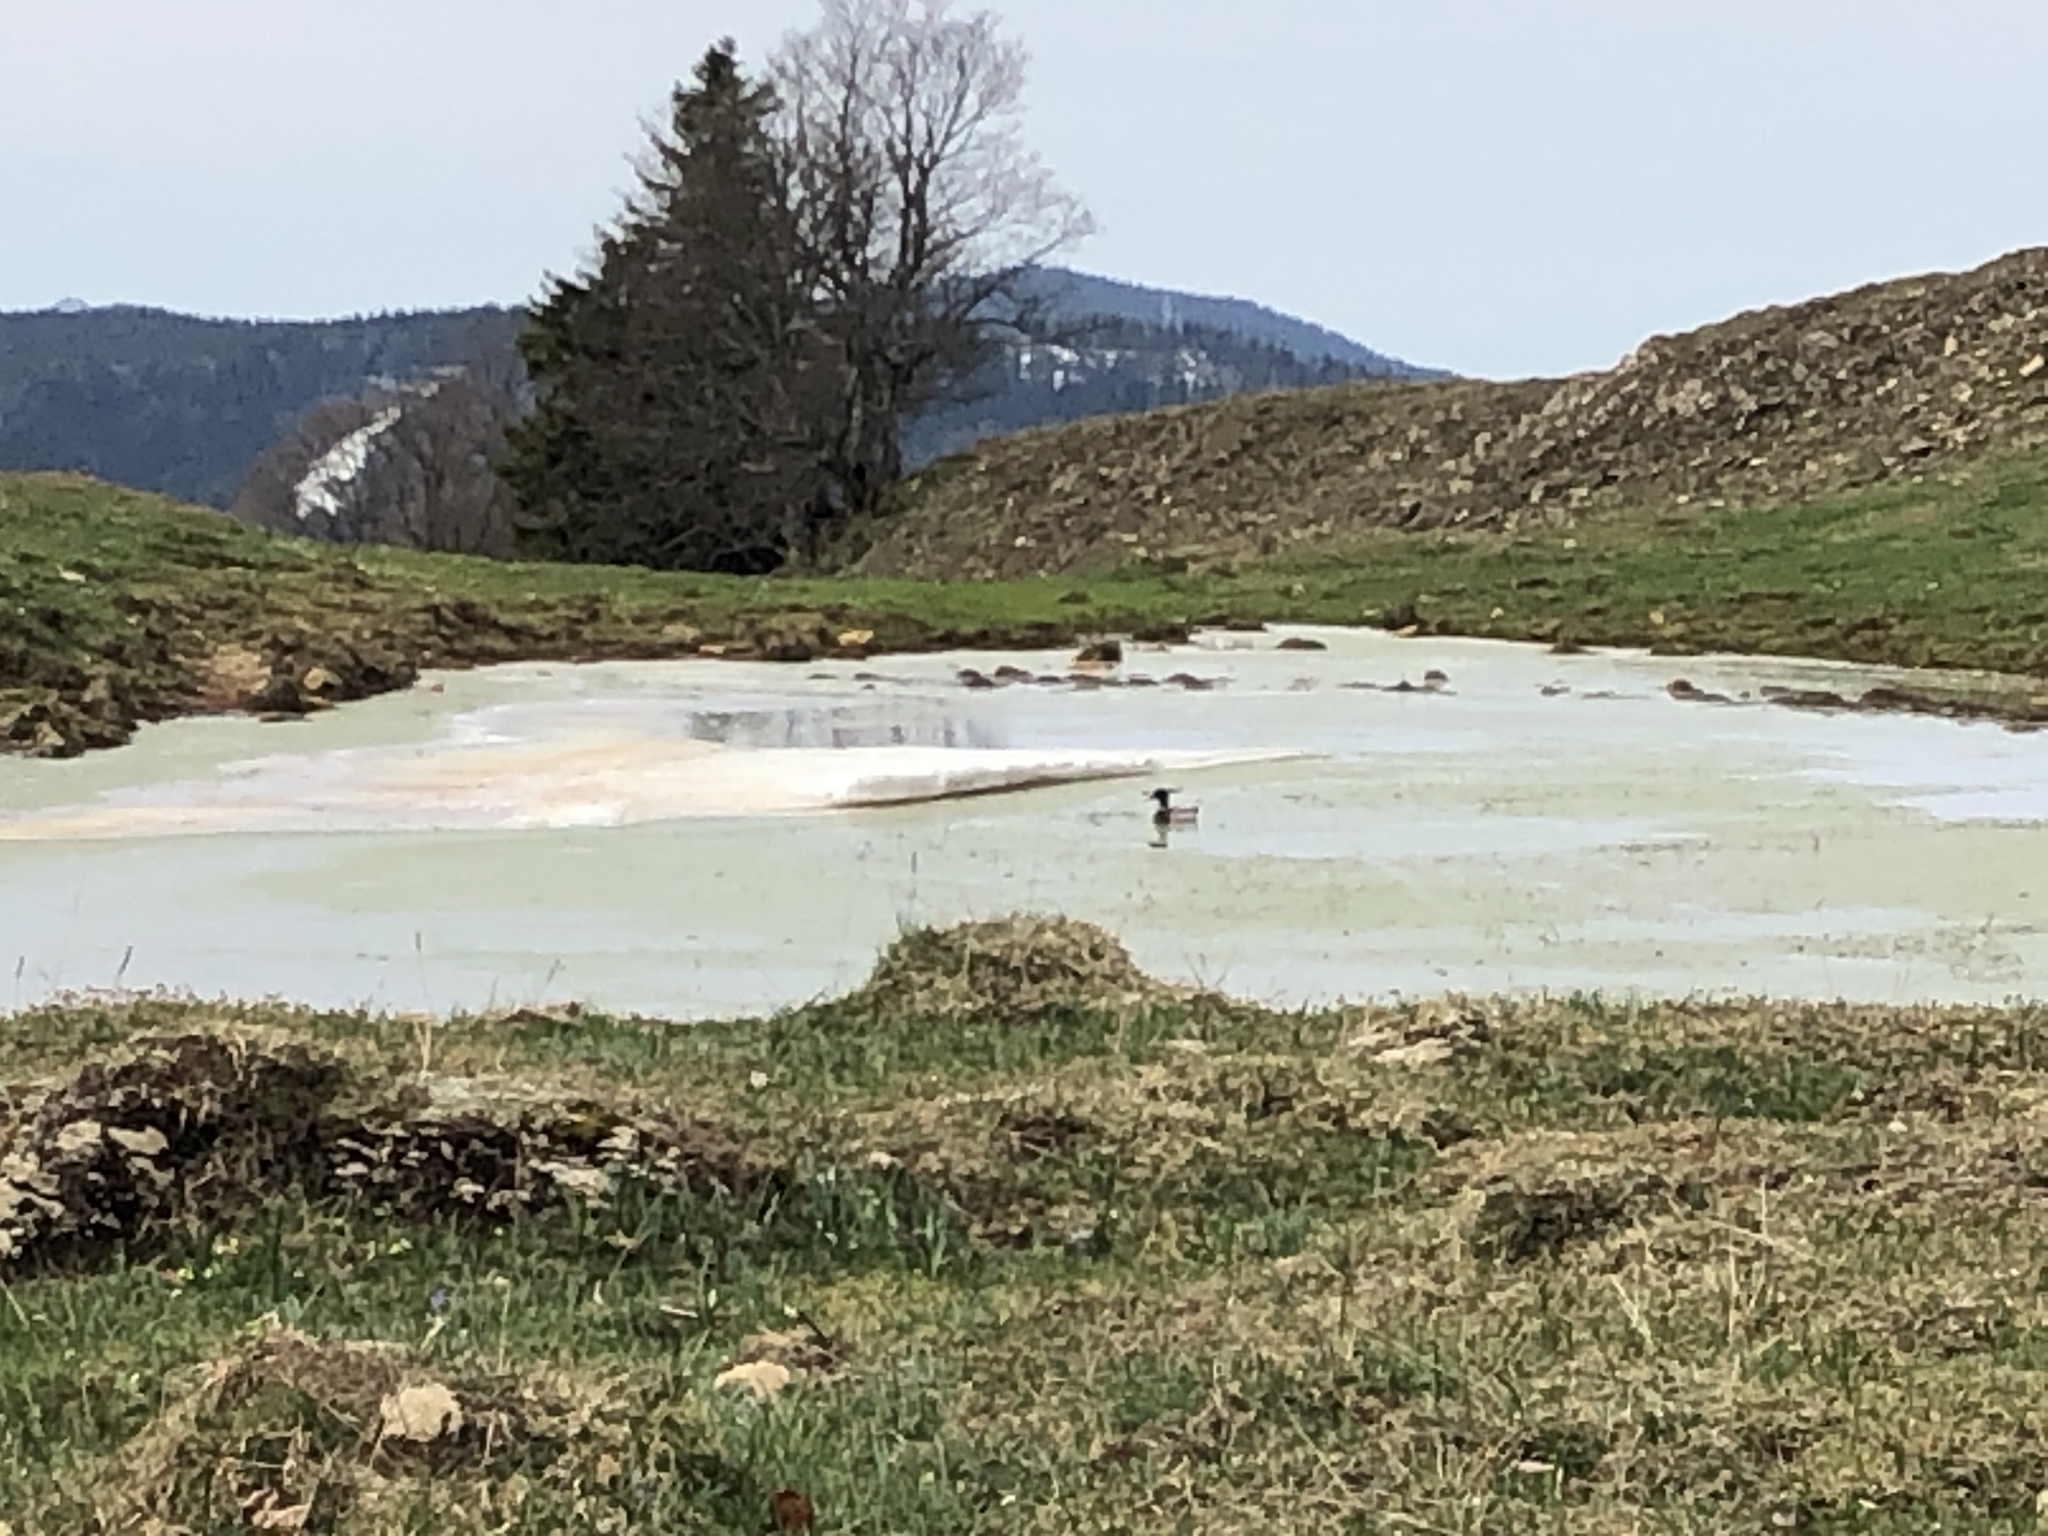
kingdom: Animalia
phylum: Chordata
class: Aves
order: Anseriformes
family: Anatidae
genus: Anas
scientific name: Anas platyrhynchos
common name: Mallard
